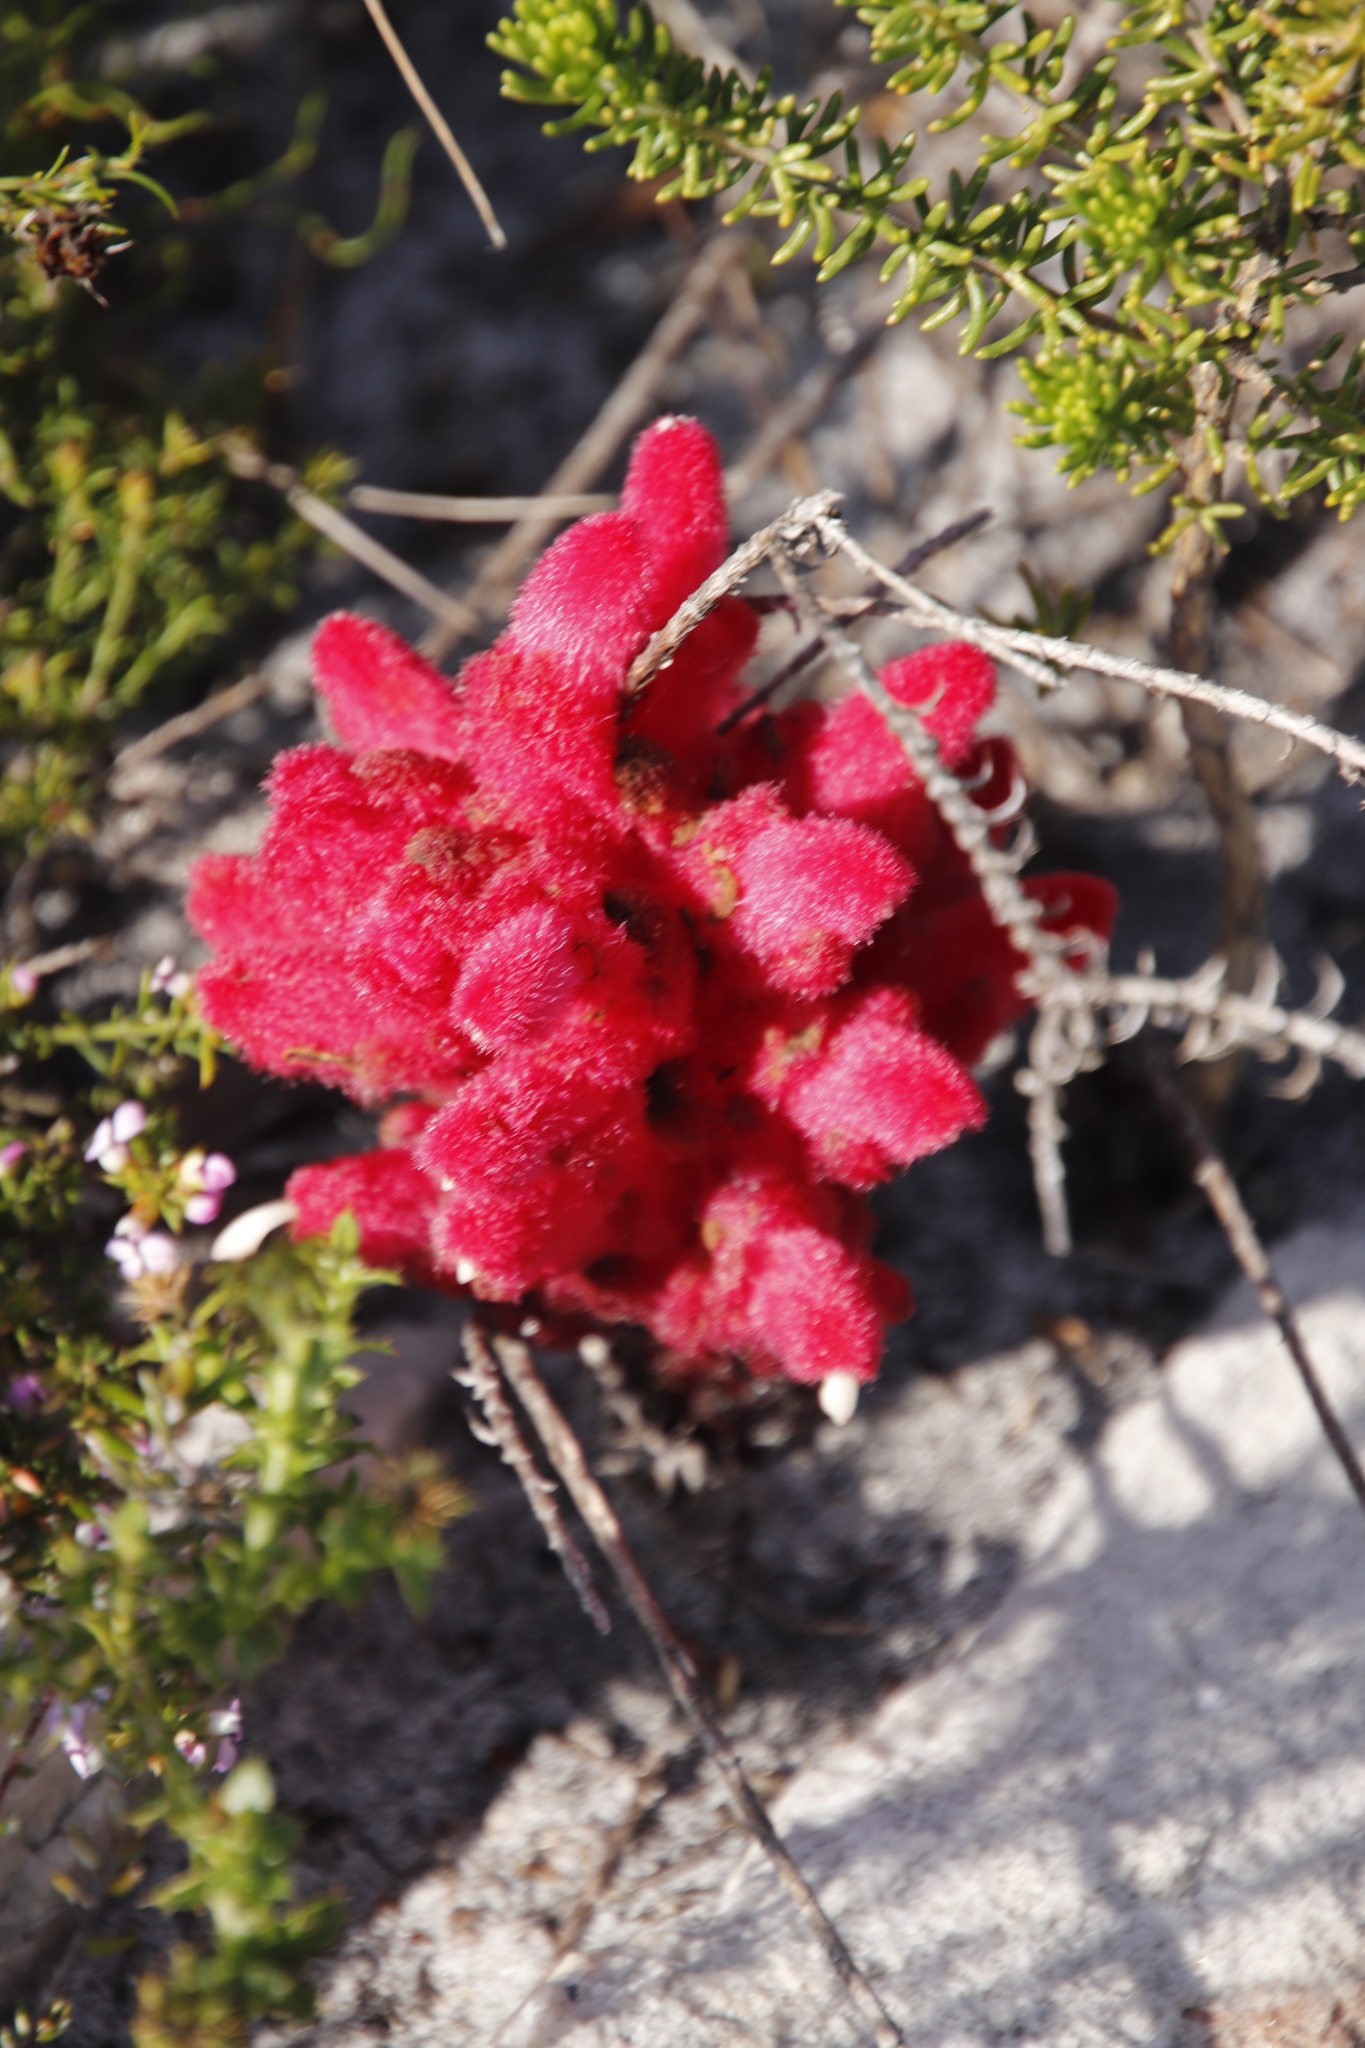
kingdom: Plantae
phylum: Tracheophyta
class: Magnoliopsida
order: Lamiales
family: Orobanchaceae
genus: Hyobanche
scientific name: Hyobanche sanguinea
